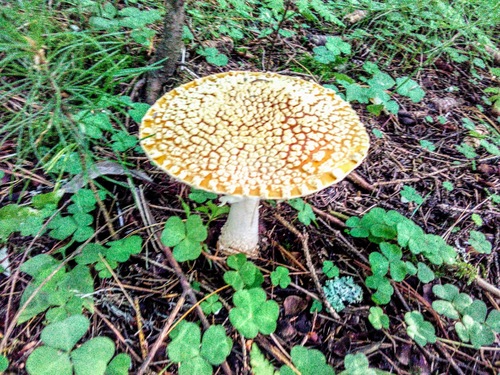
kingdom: Fungi
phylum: Basidiomycota
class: Agaricomycetes
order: Agaricales
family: Amanitaceae
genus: Amanita
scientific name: Amanita regalis
